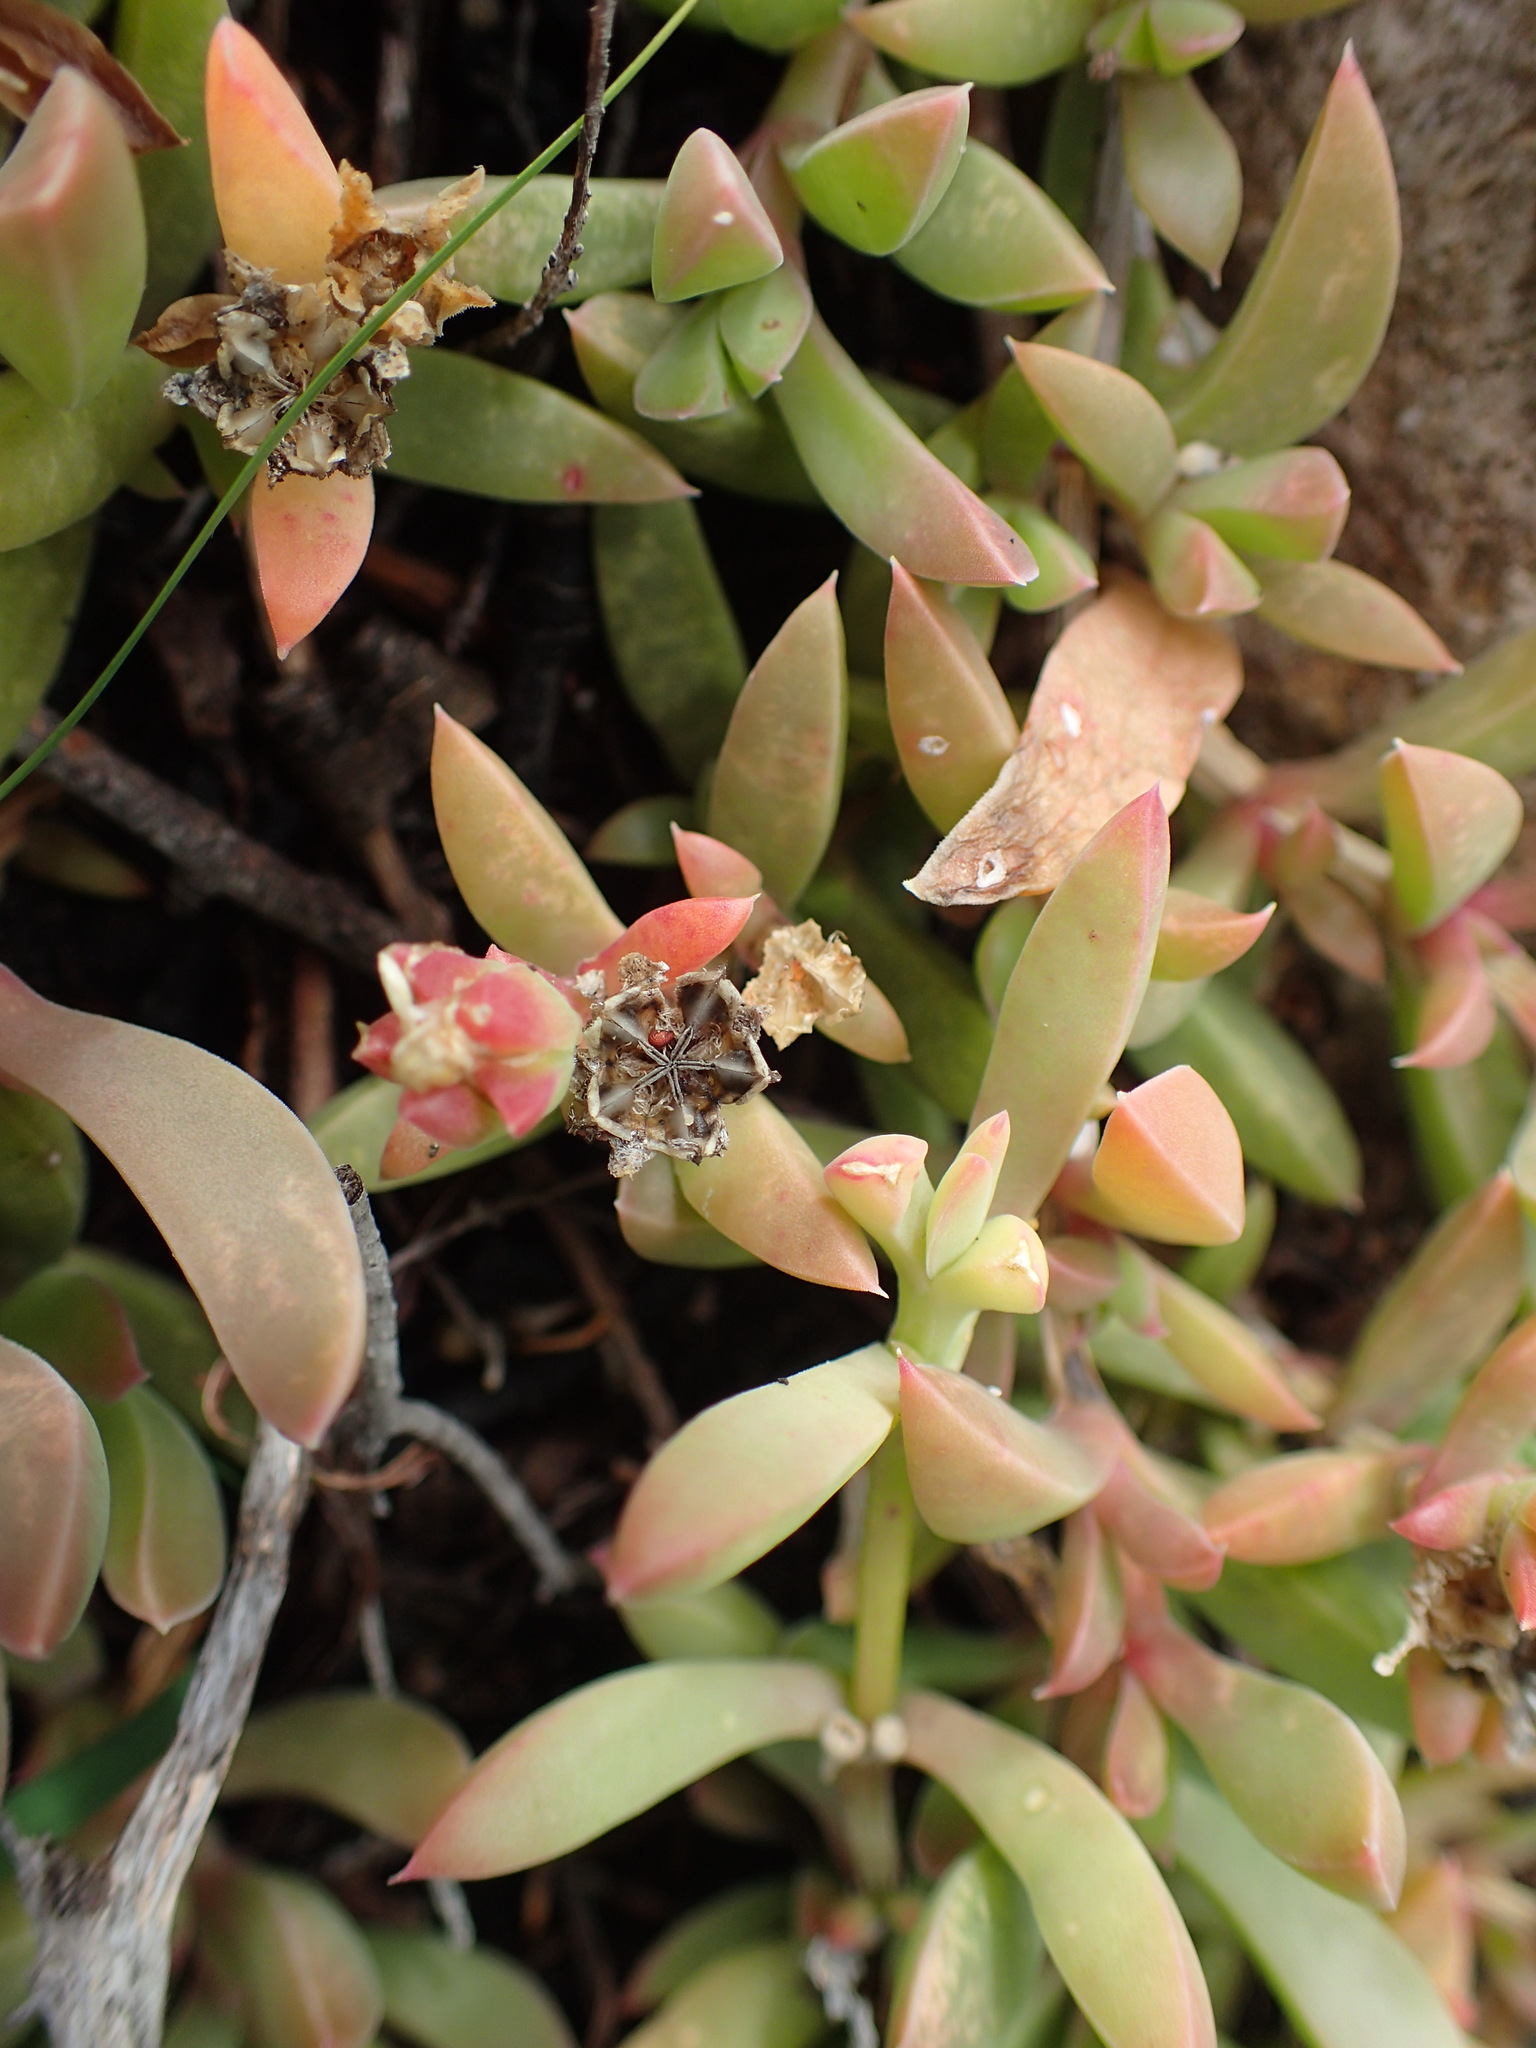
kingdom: Plantae
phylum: Tracheophyta
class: Magnoliopsida
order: Caryophyllales
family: Aizoaceae
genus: Delosperma
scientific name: Delosperma inconspicuum
